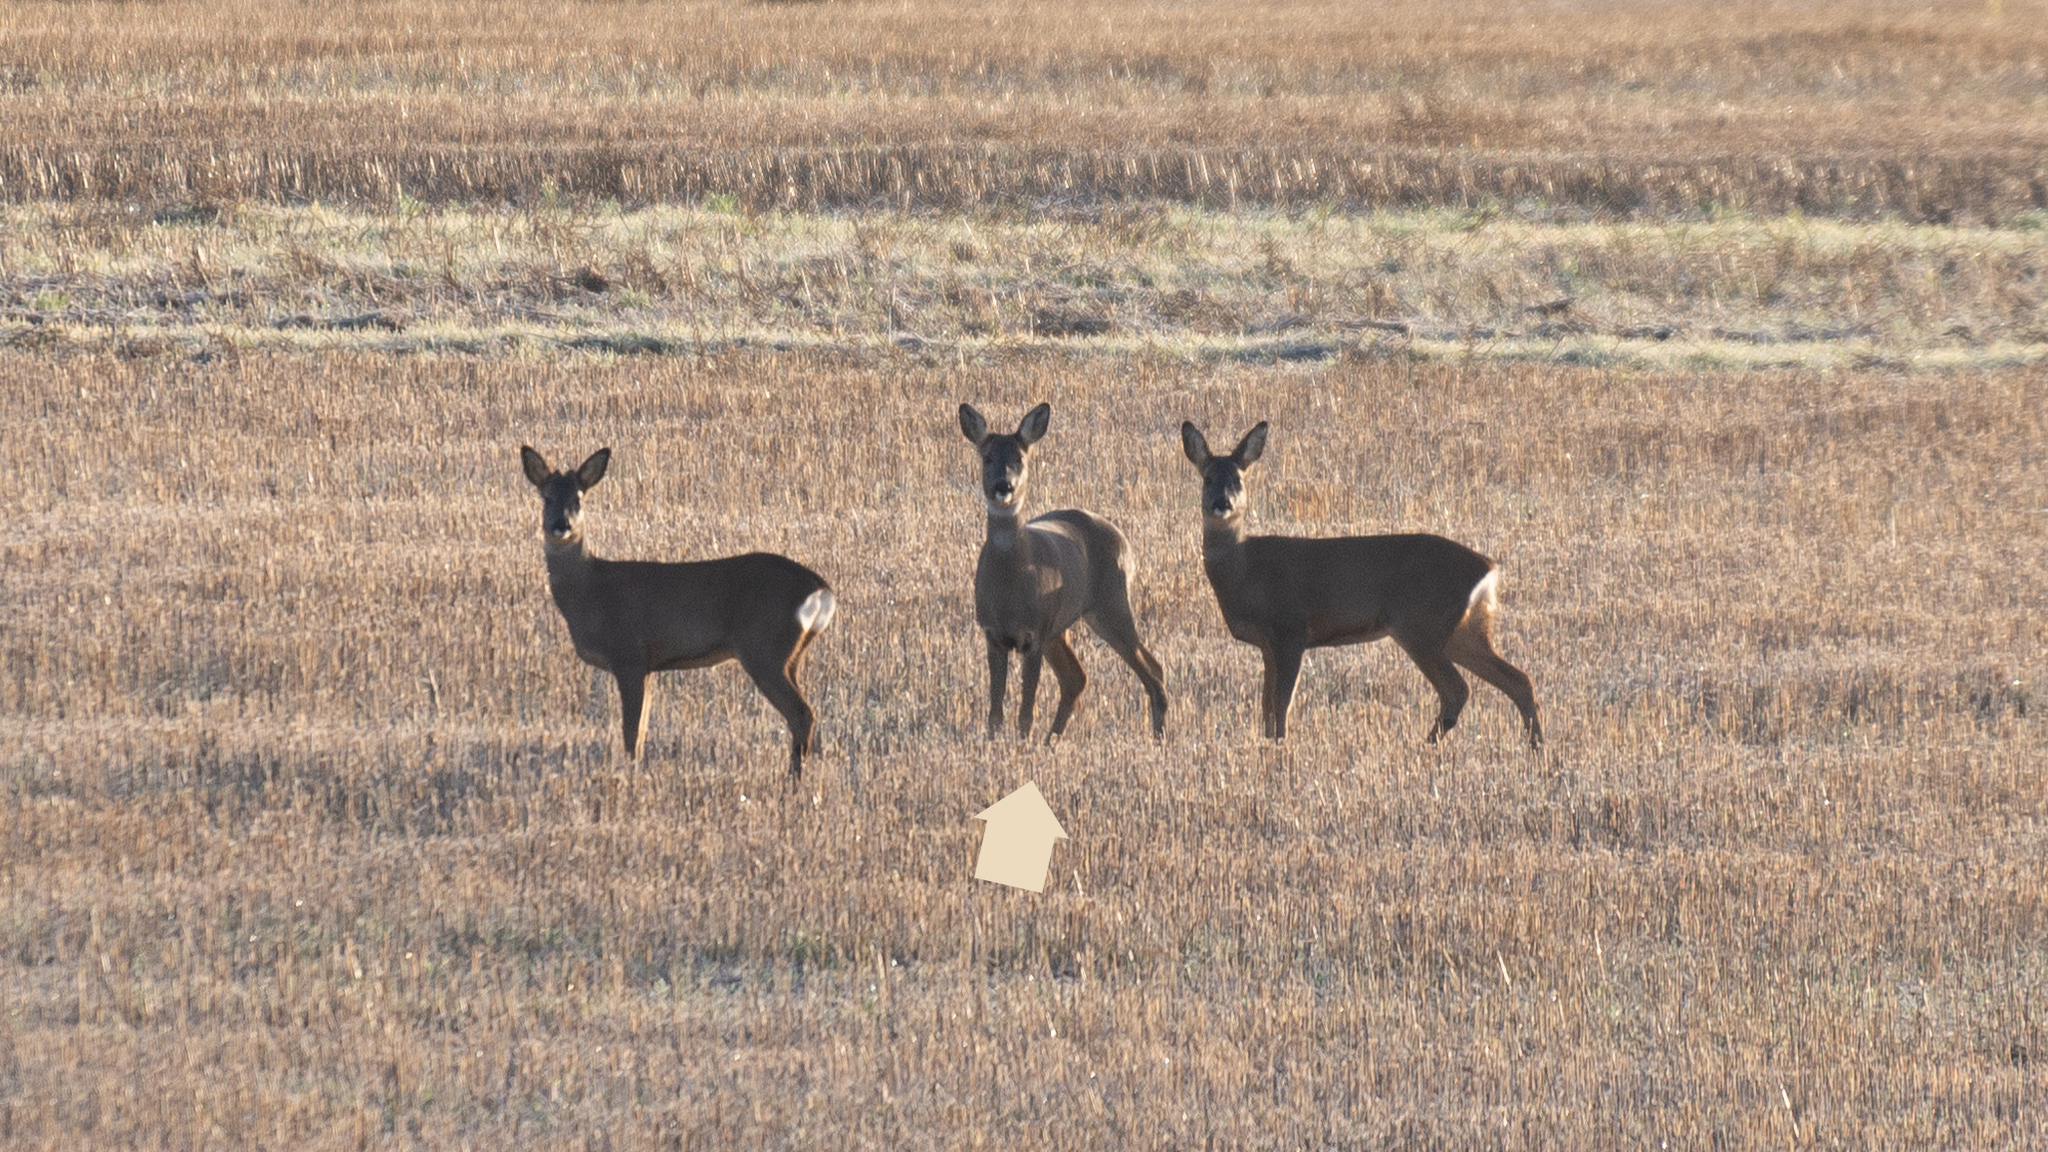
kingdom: Animalia
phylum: Chordata
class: Mammalia
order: Artiodactyla
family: Cervidae
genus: Capreolus
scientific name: Capreolus capreolus
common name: Western roe deer
